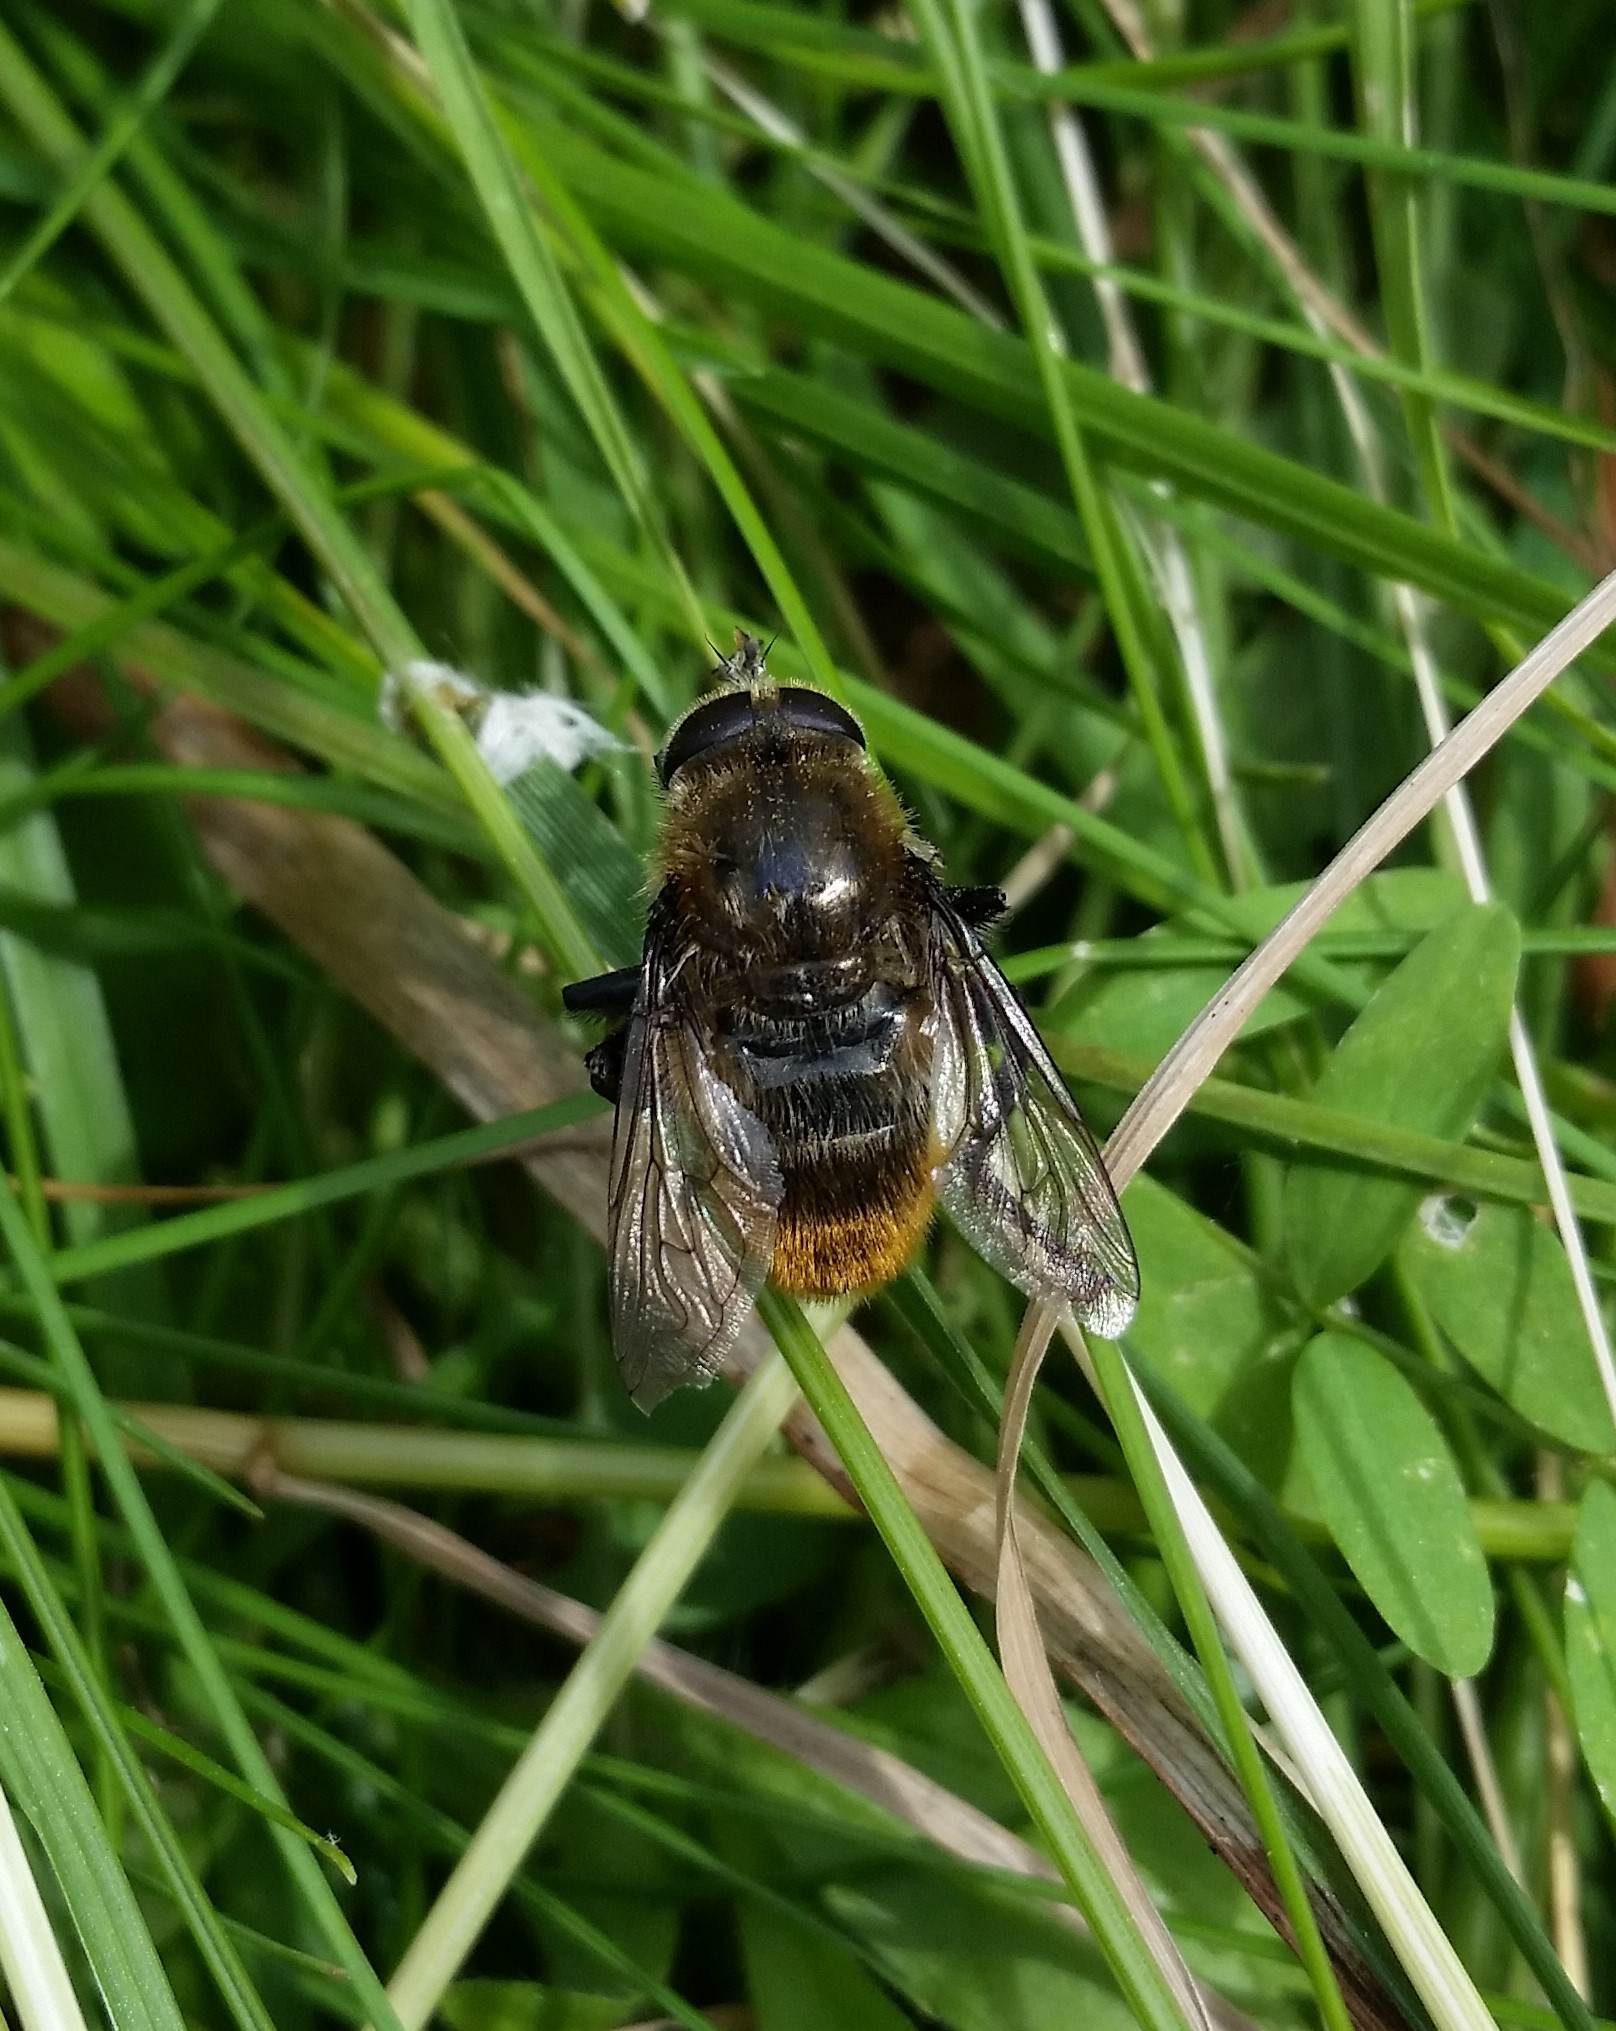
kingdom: Animalia
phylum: Arthropoda
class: Insecta
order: Diptera
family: Syrphidae
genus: Merodon
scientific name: Merodon equestris
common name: Greater bulb-fly
